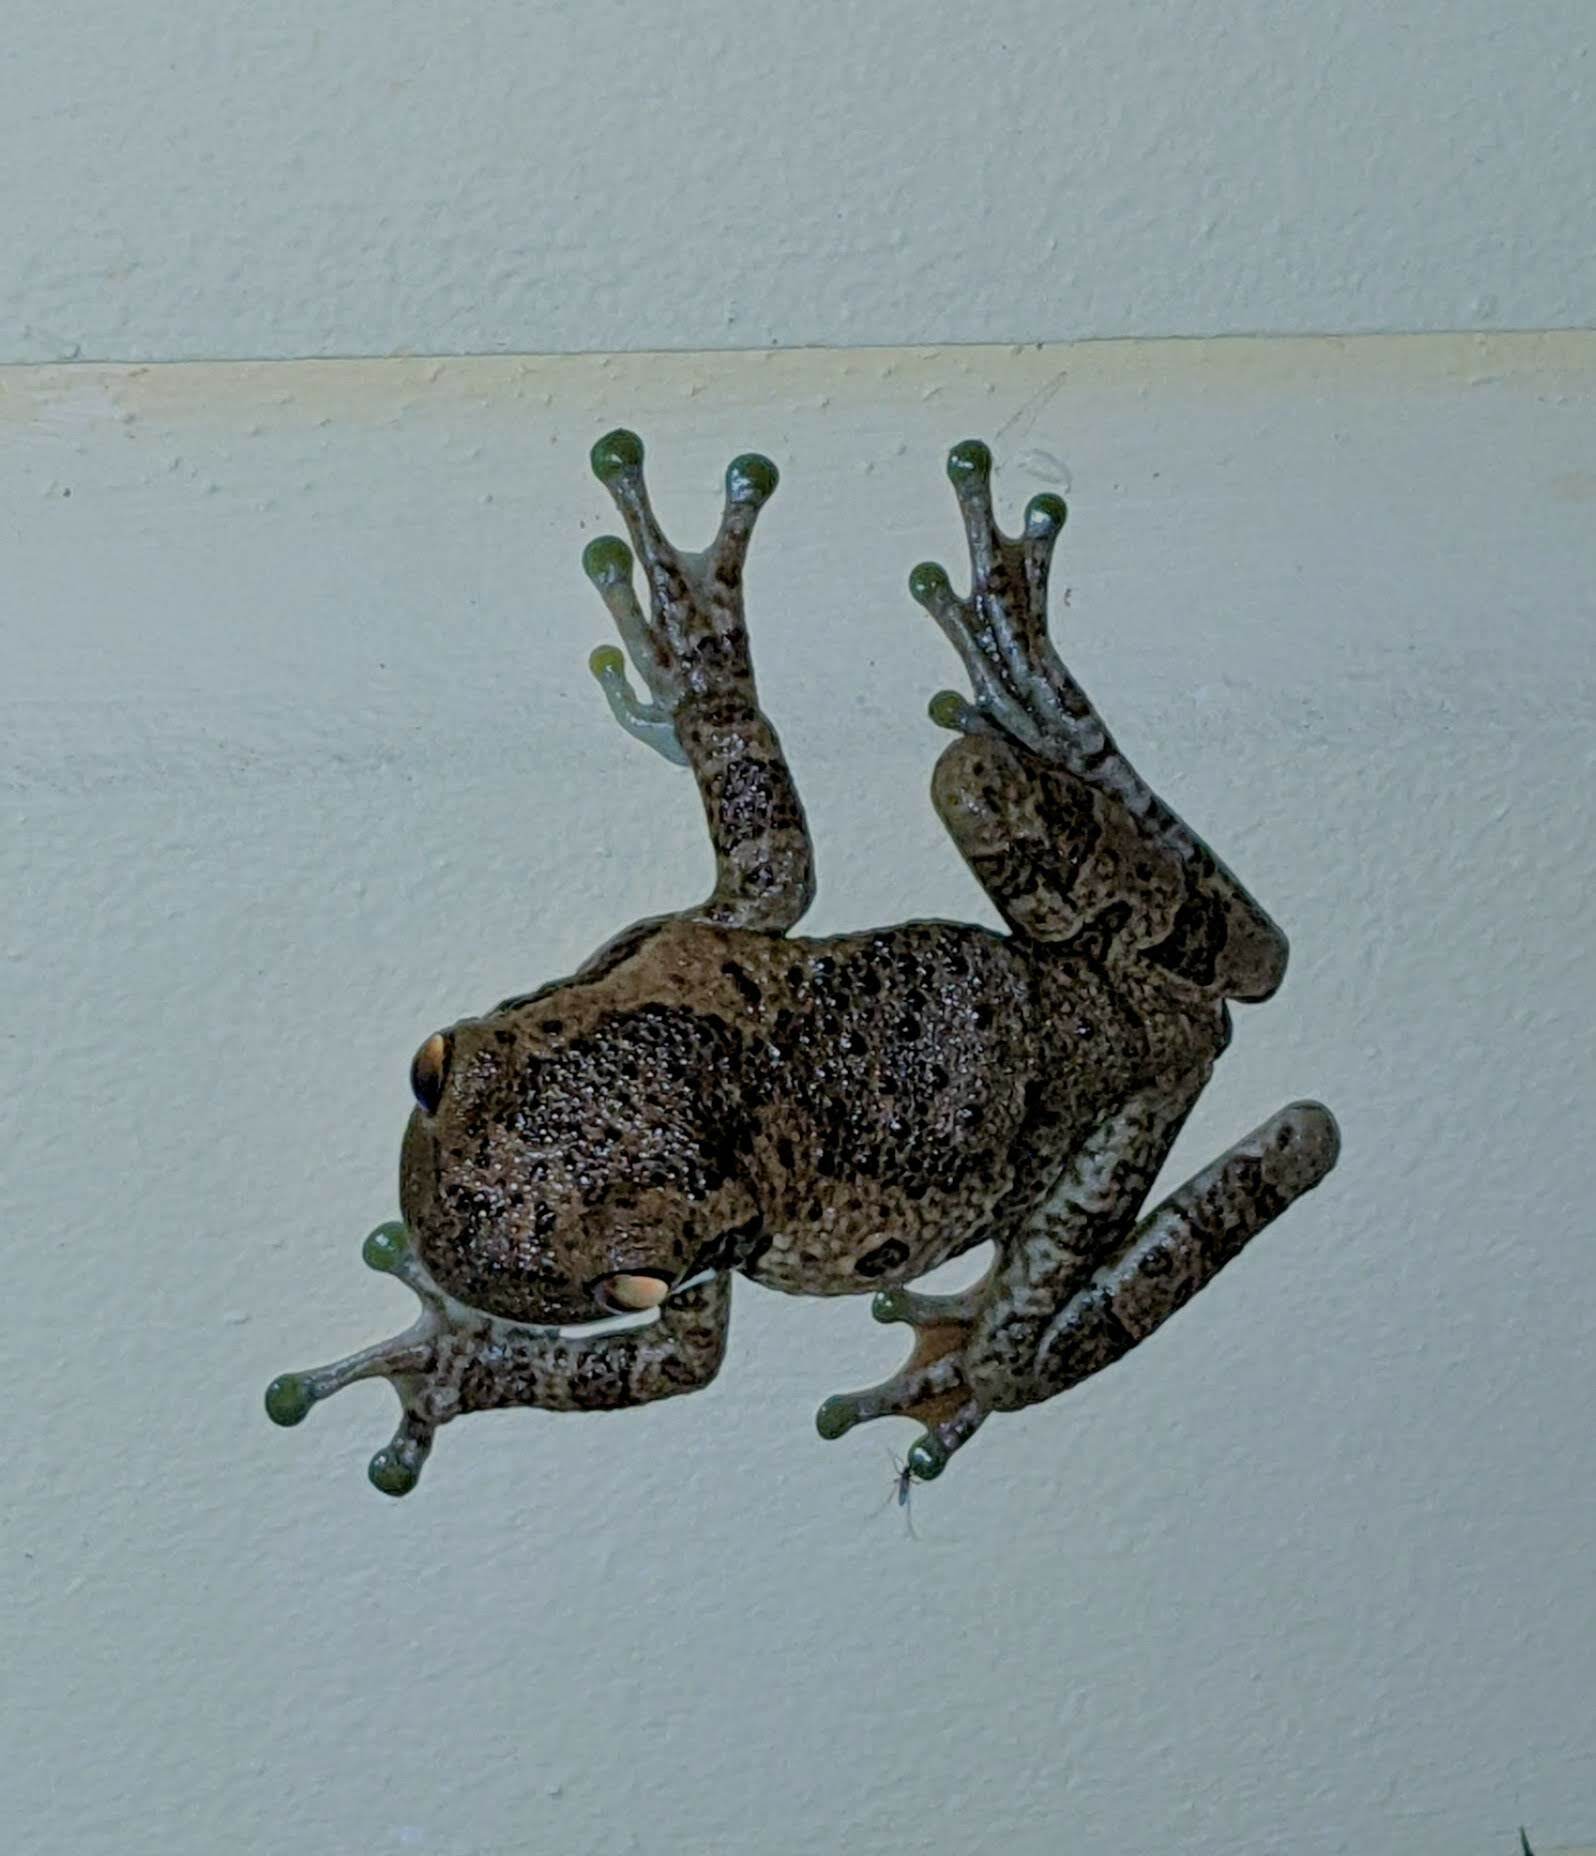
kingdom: Animalia
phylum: Chordata
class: Amphibia
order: Anura
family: Hylidae
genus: Trachycephalus
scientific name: Trachycephalus typhonius
